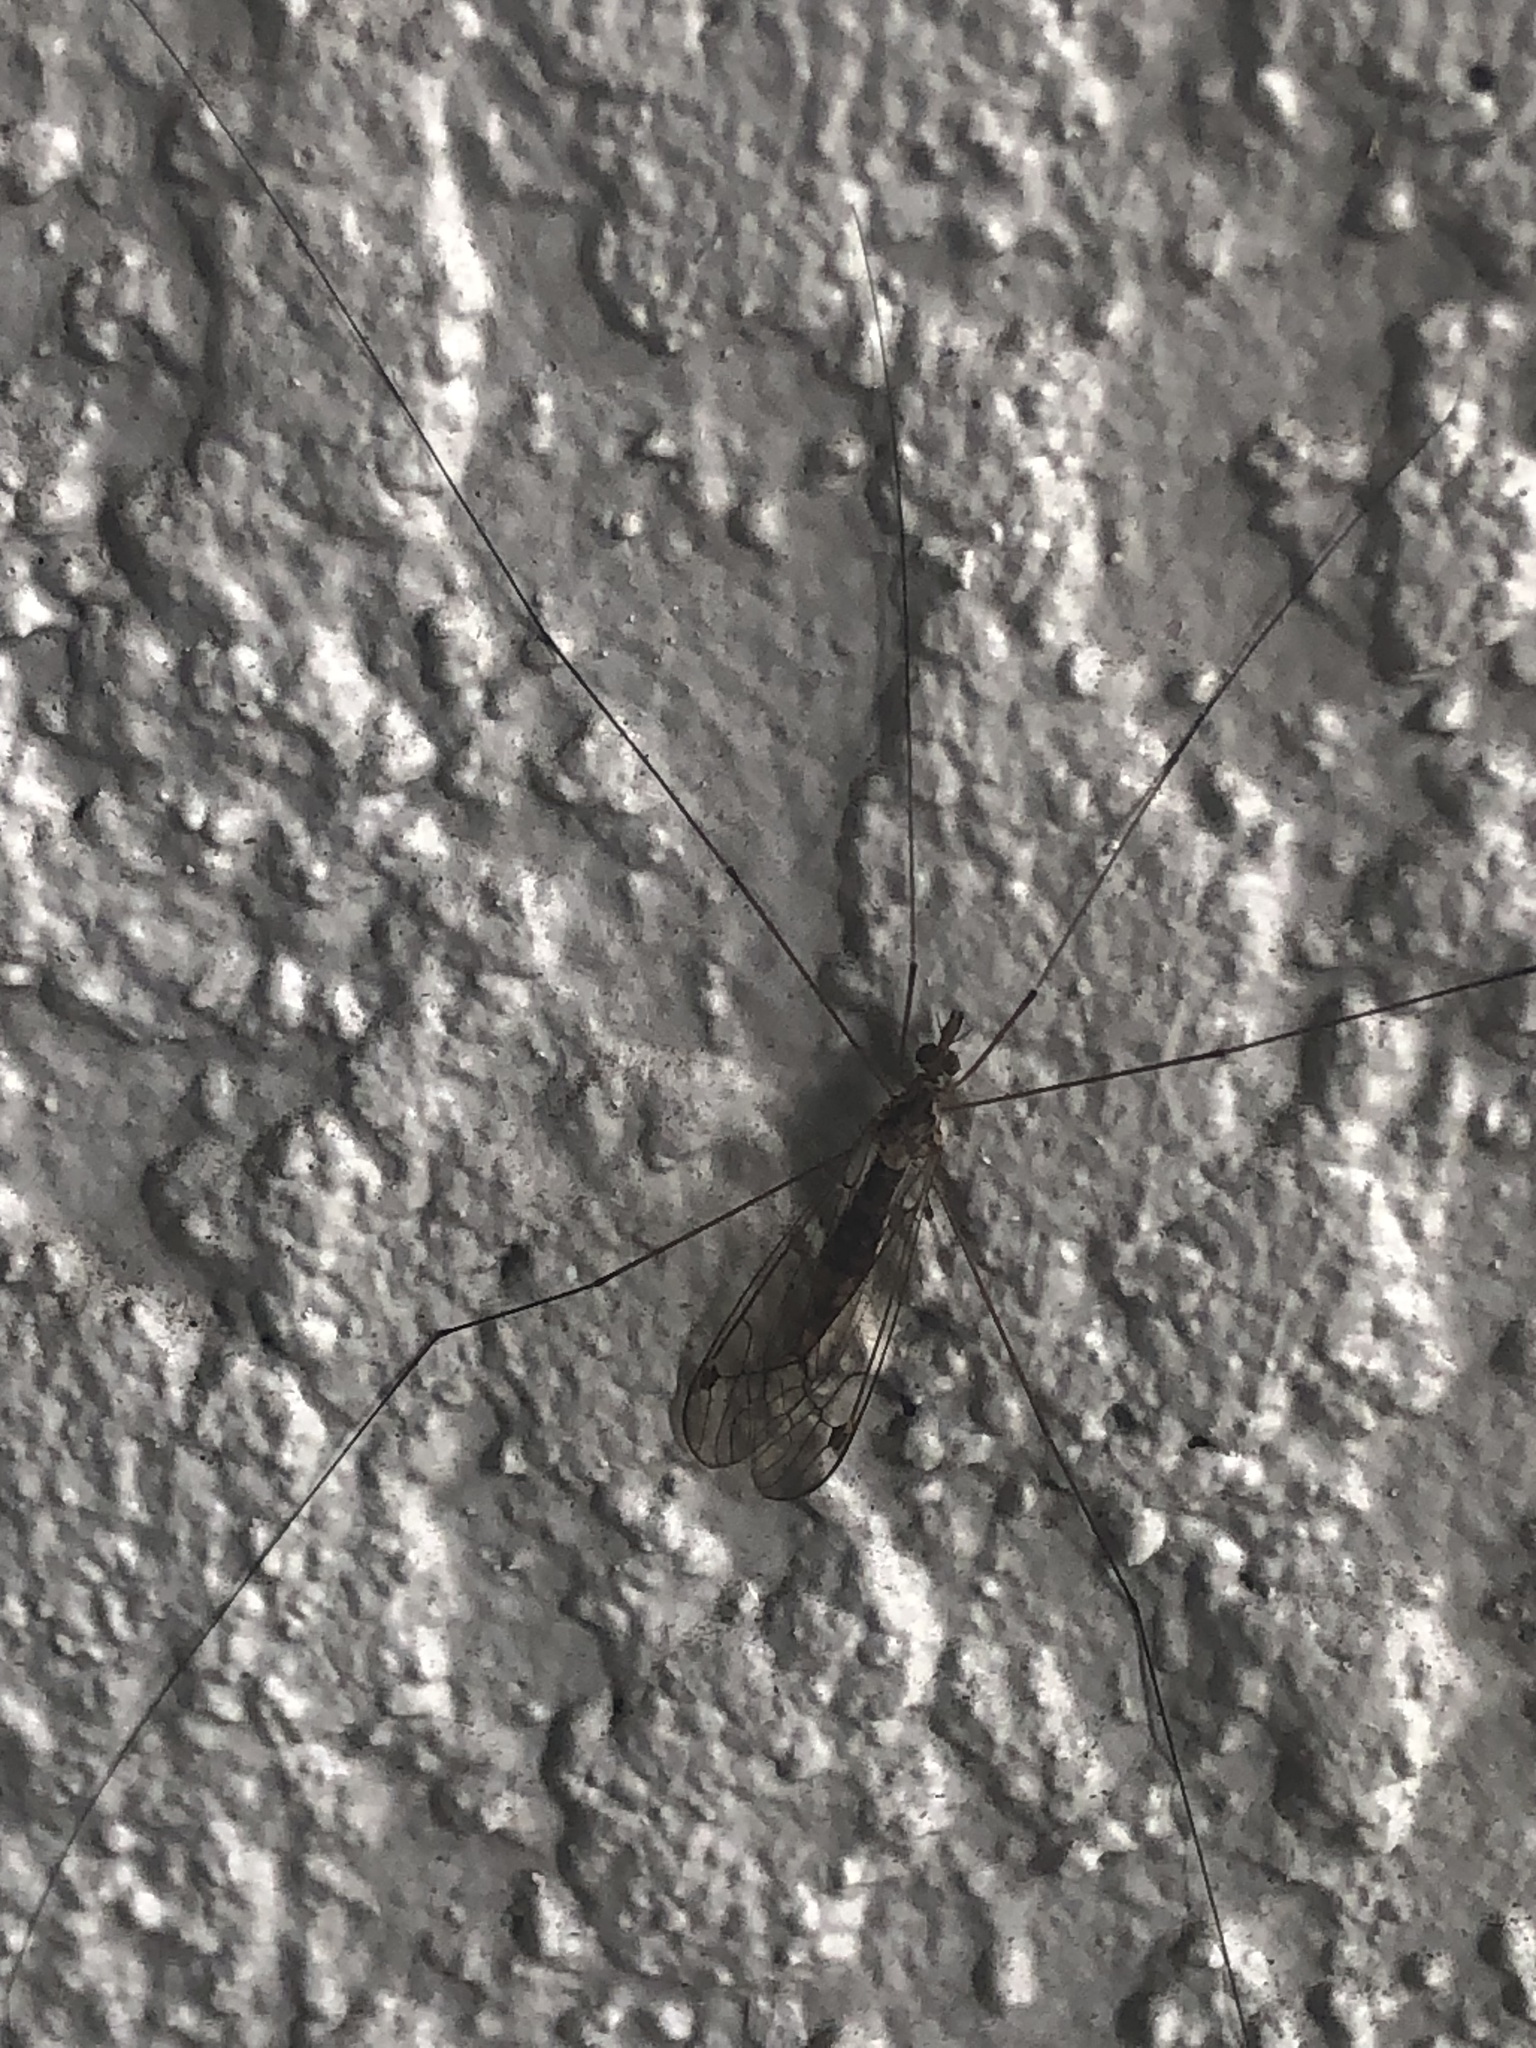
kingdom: Animalia
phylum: Arthropoda
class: Insecta
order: Diptera
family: Tipulidae
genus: Maekistocera
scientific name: Maekistocera longipennis
